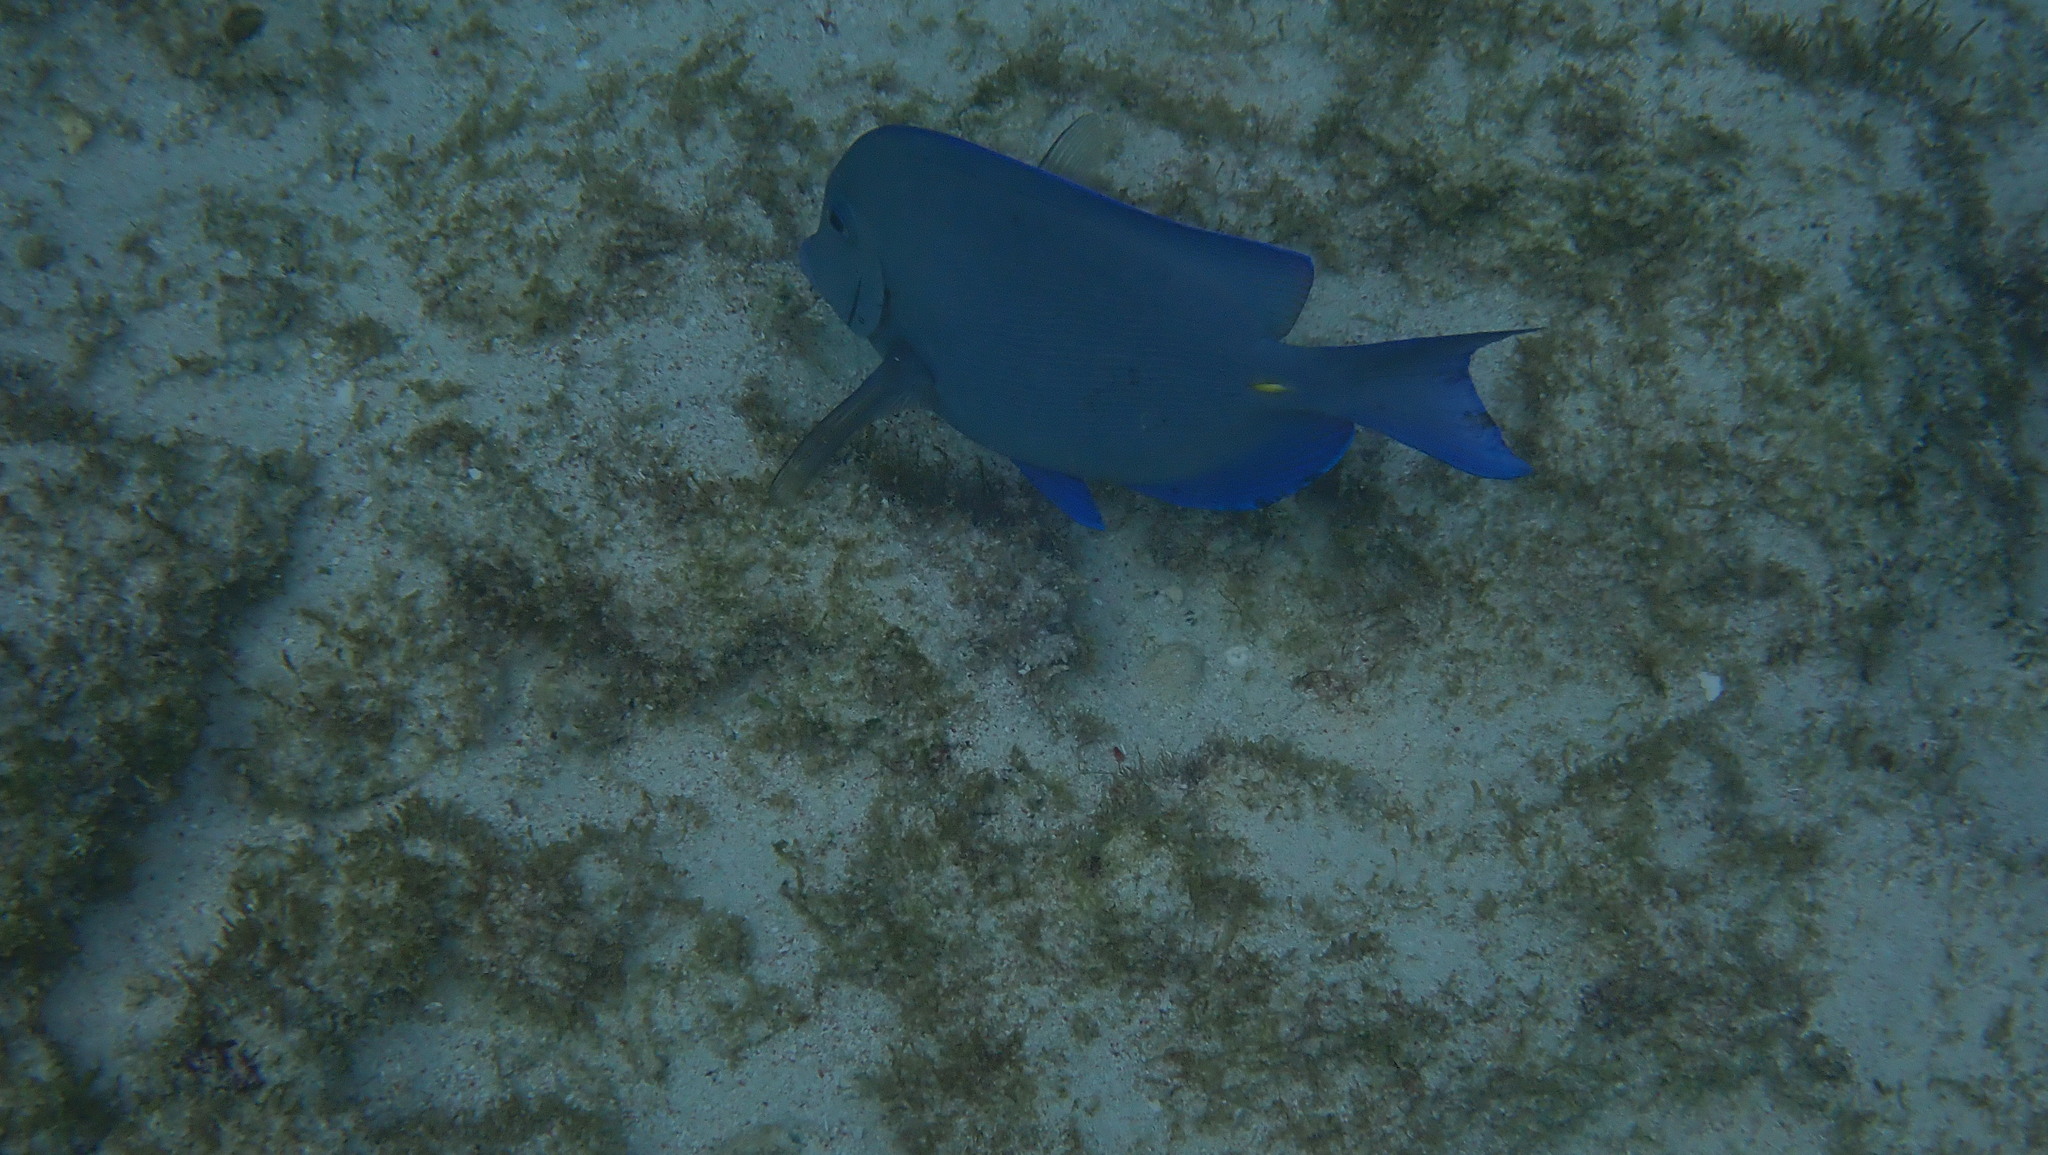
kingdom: Animalia
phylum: Chordata
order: Perciformes
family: Acanthuridae
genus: Acanthurus
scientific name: Acanthurus coeruleus
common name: Blue tang
